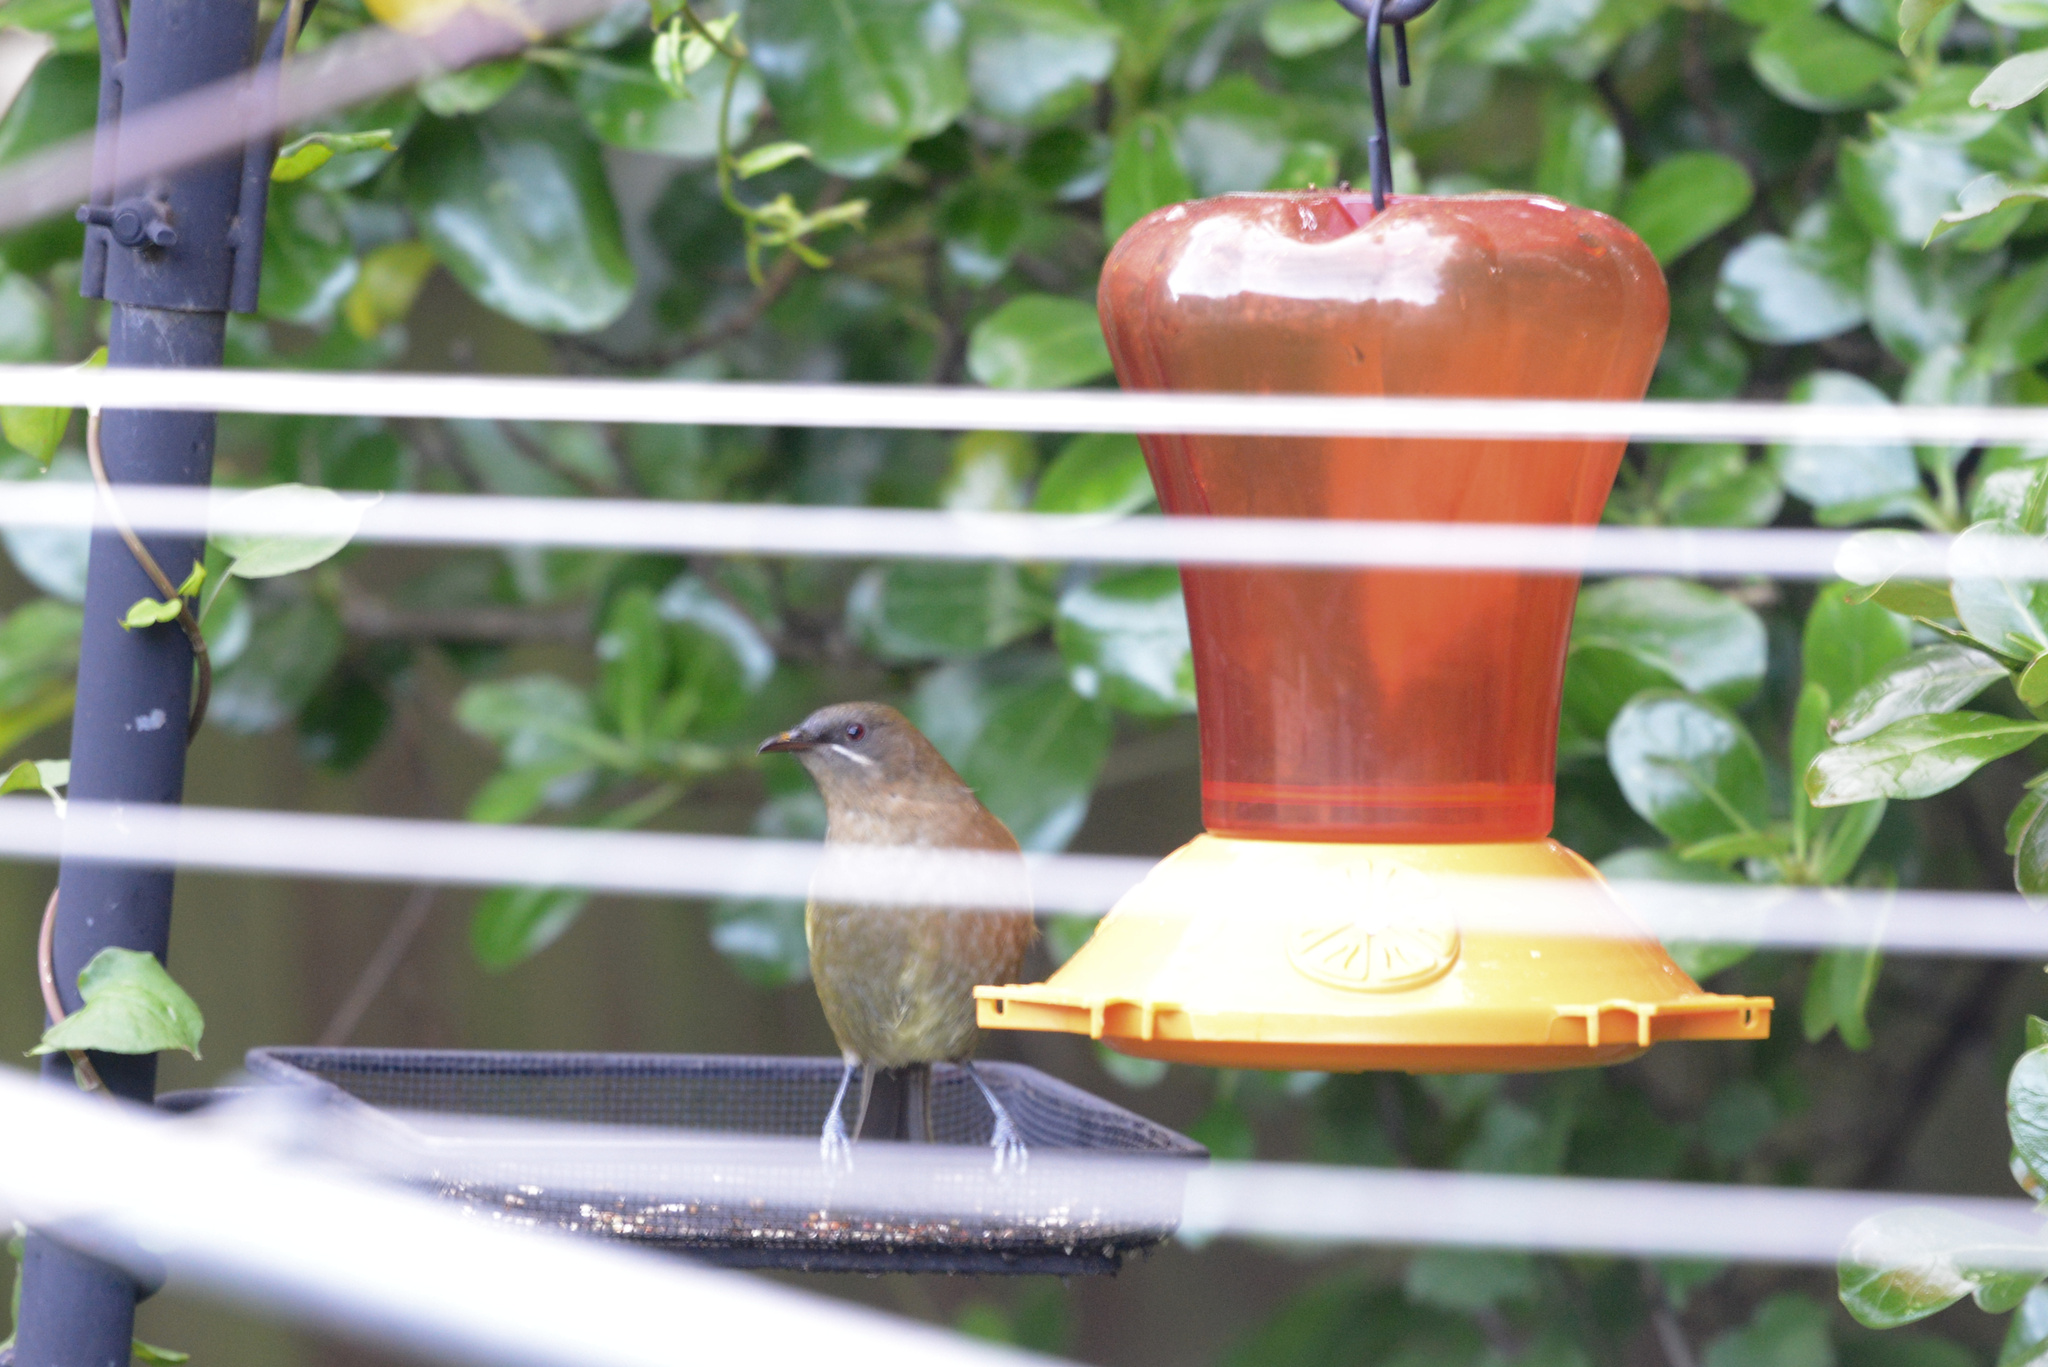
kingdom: Animalia
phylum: Chordata
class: Aves
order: Passeriformes
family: Meliphagidae
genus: Anthornis
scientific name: Anthornis melanura
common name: New zealand bellbird
